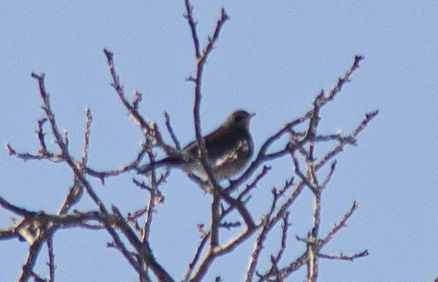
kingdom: Animalia
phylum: Chordata
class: Aves
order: Passeriformes
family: Turdidae
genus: Turdus
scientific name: Turdus pilaris
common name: Fieldfare
